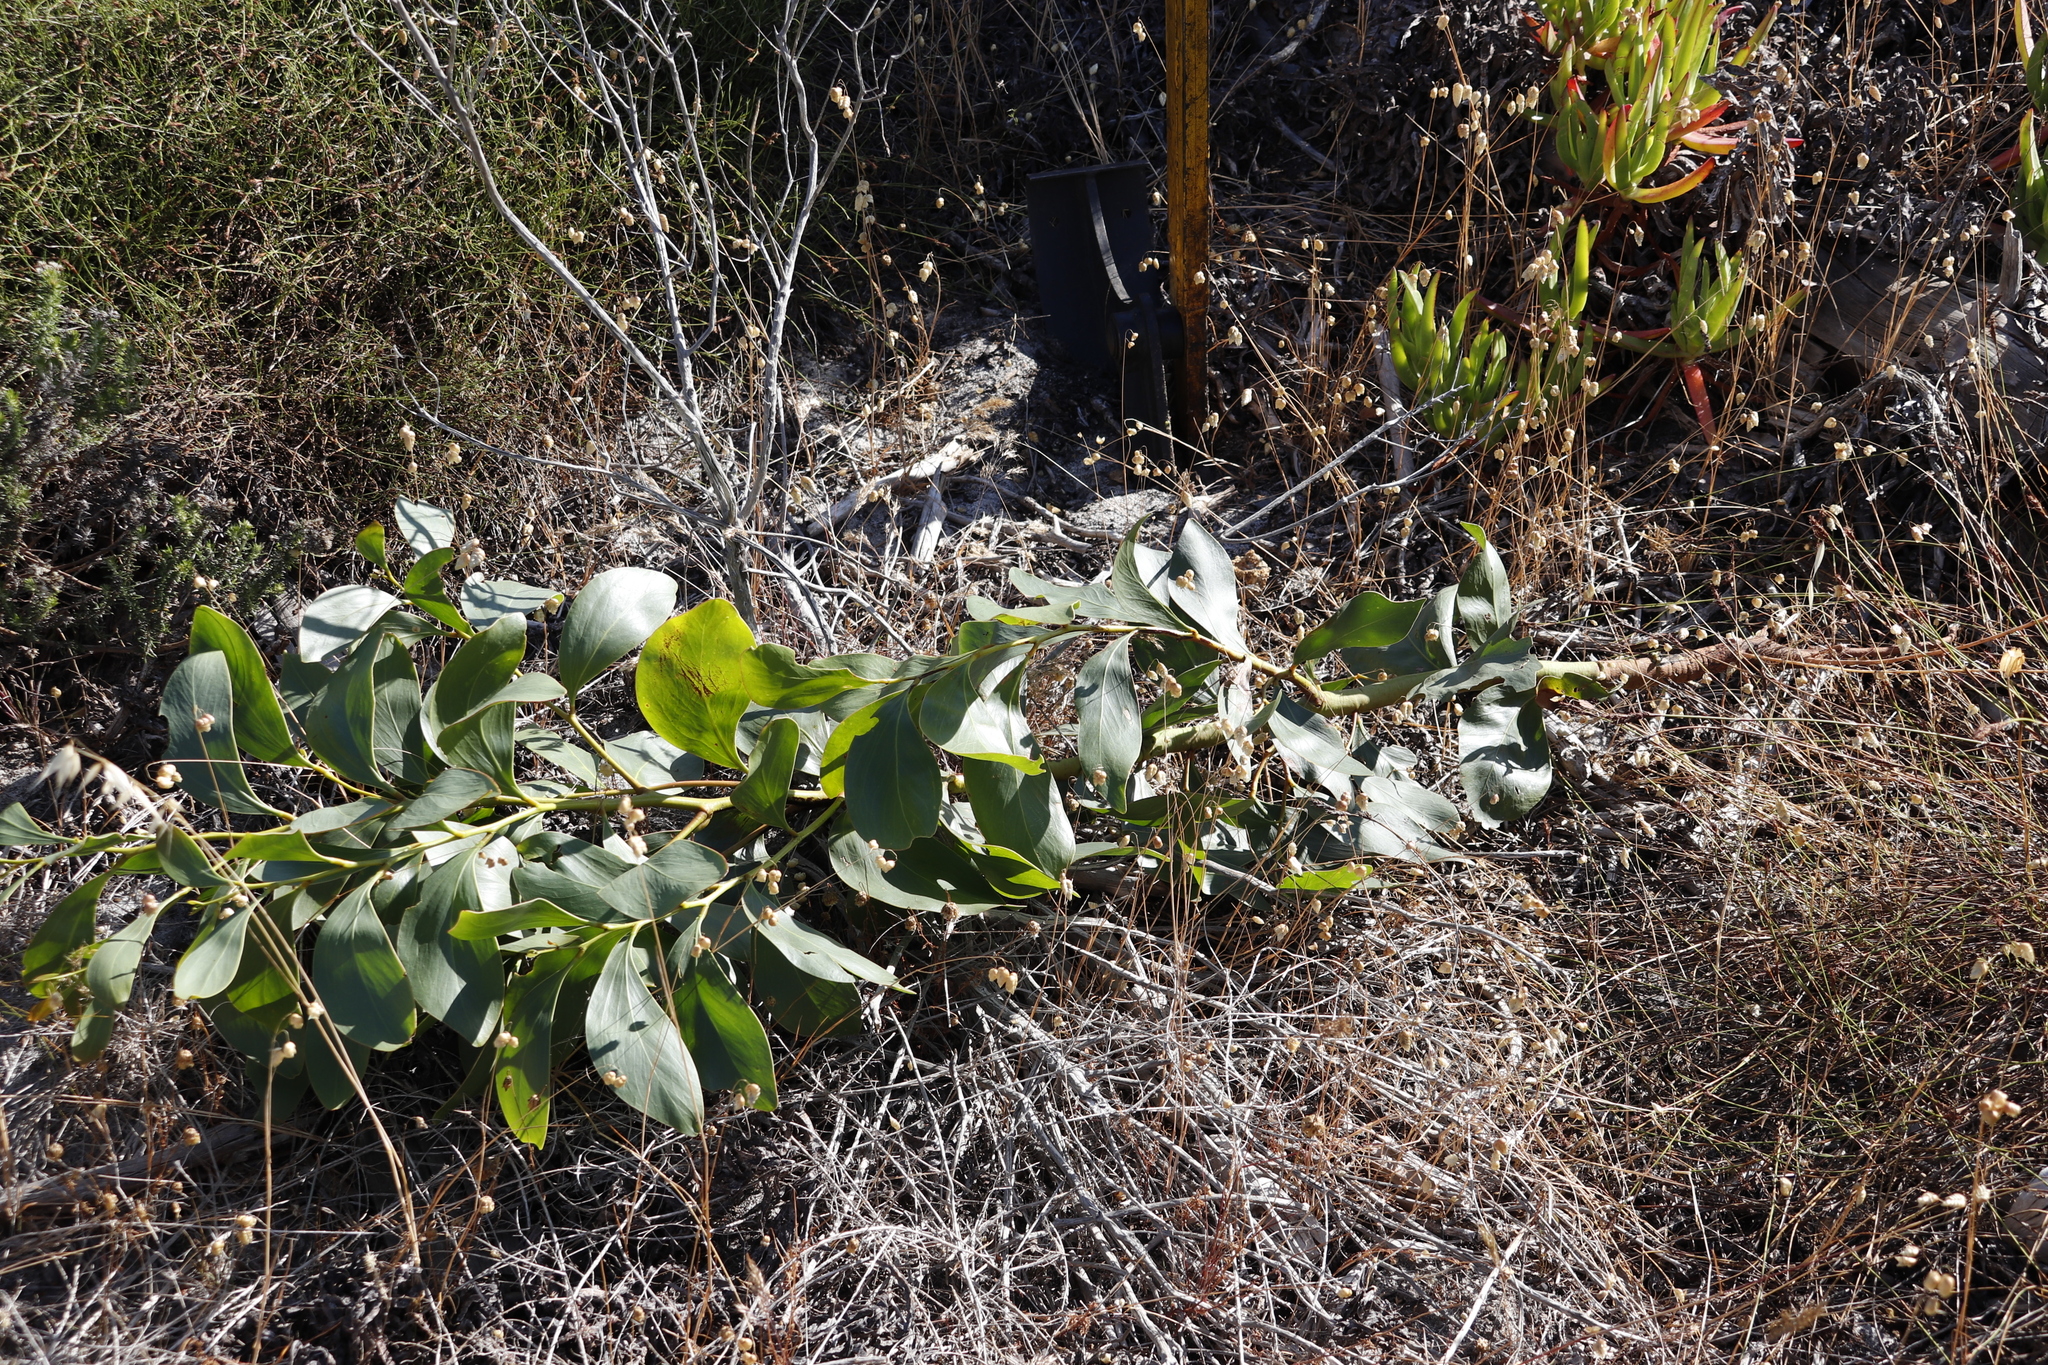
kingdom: Plantae
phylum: Tracheophyta
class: Magnoliopsida
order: Fabales
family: Fabaceae
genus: Acacia
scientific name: Acacia pycnantha
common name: Golden wattle
